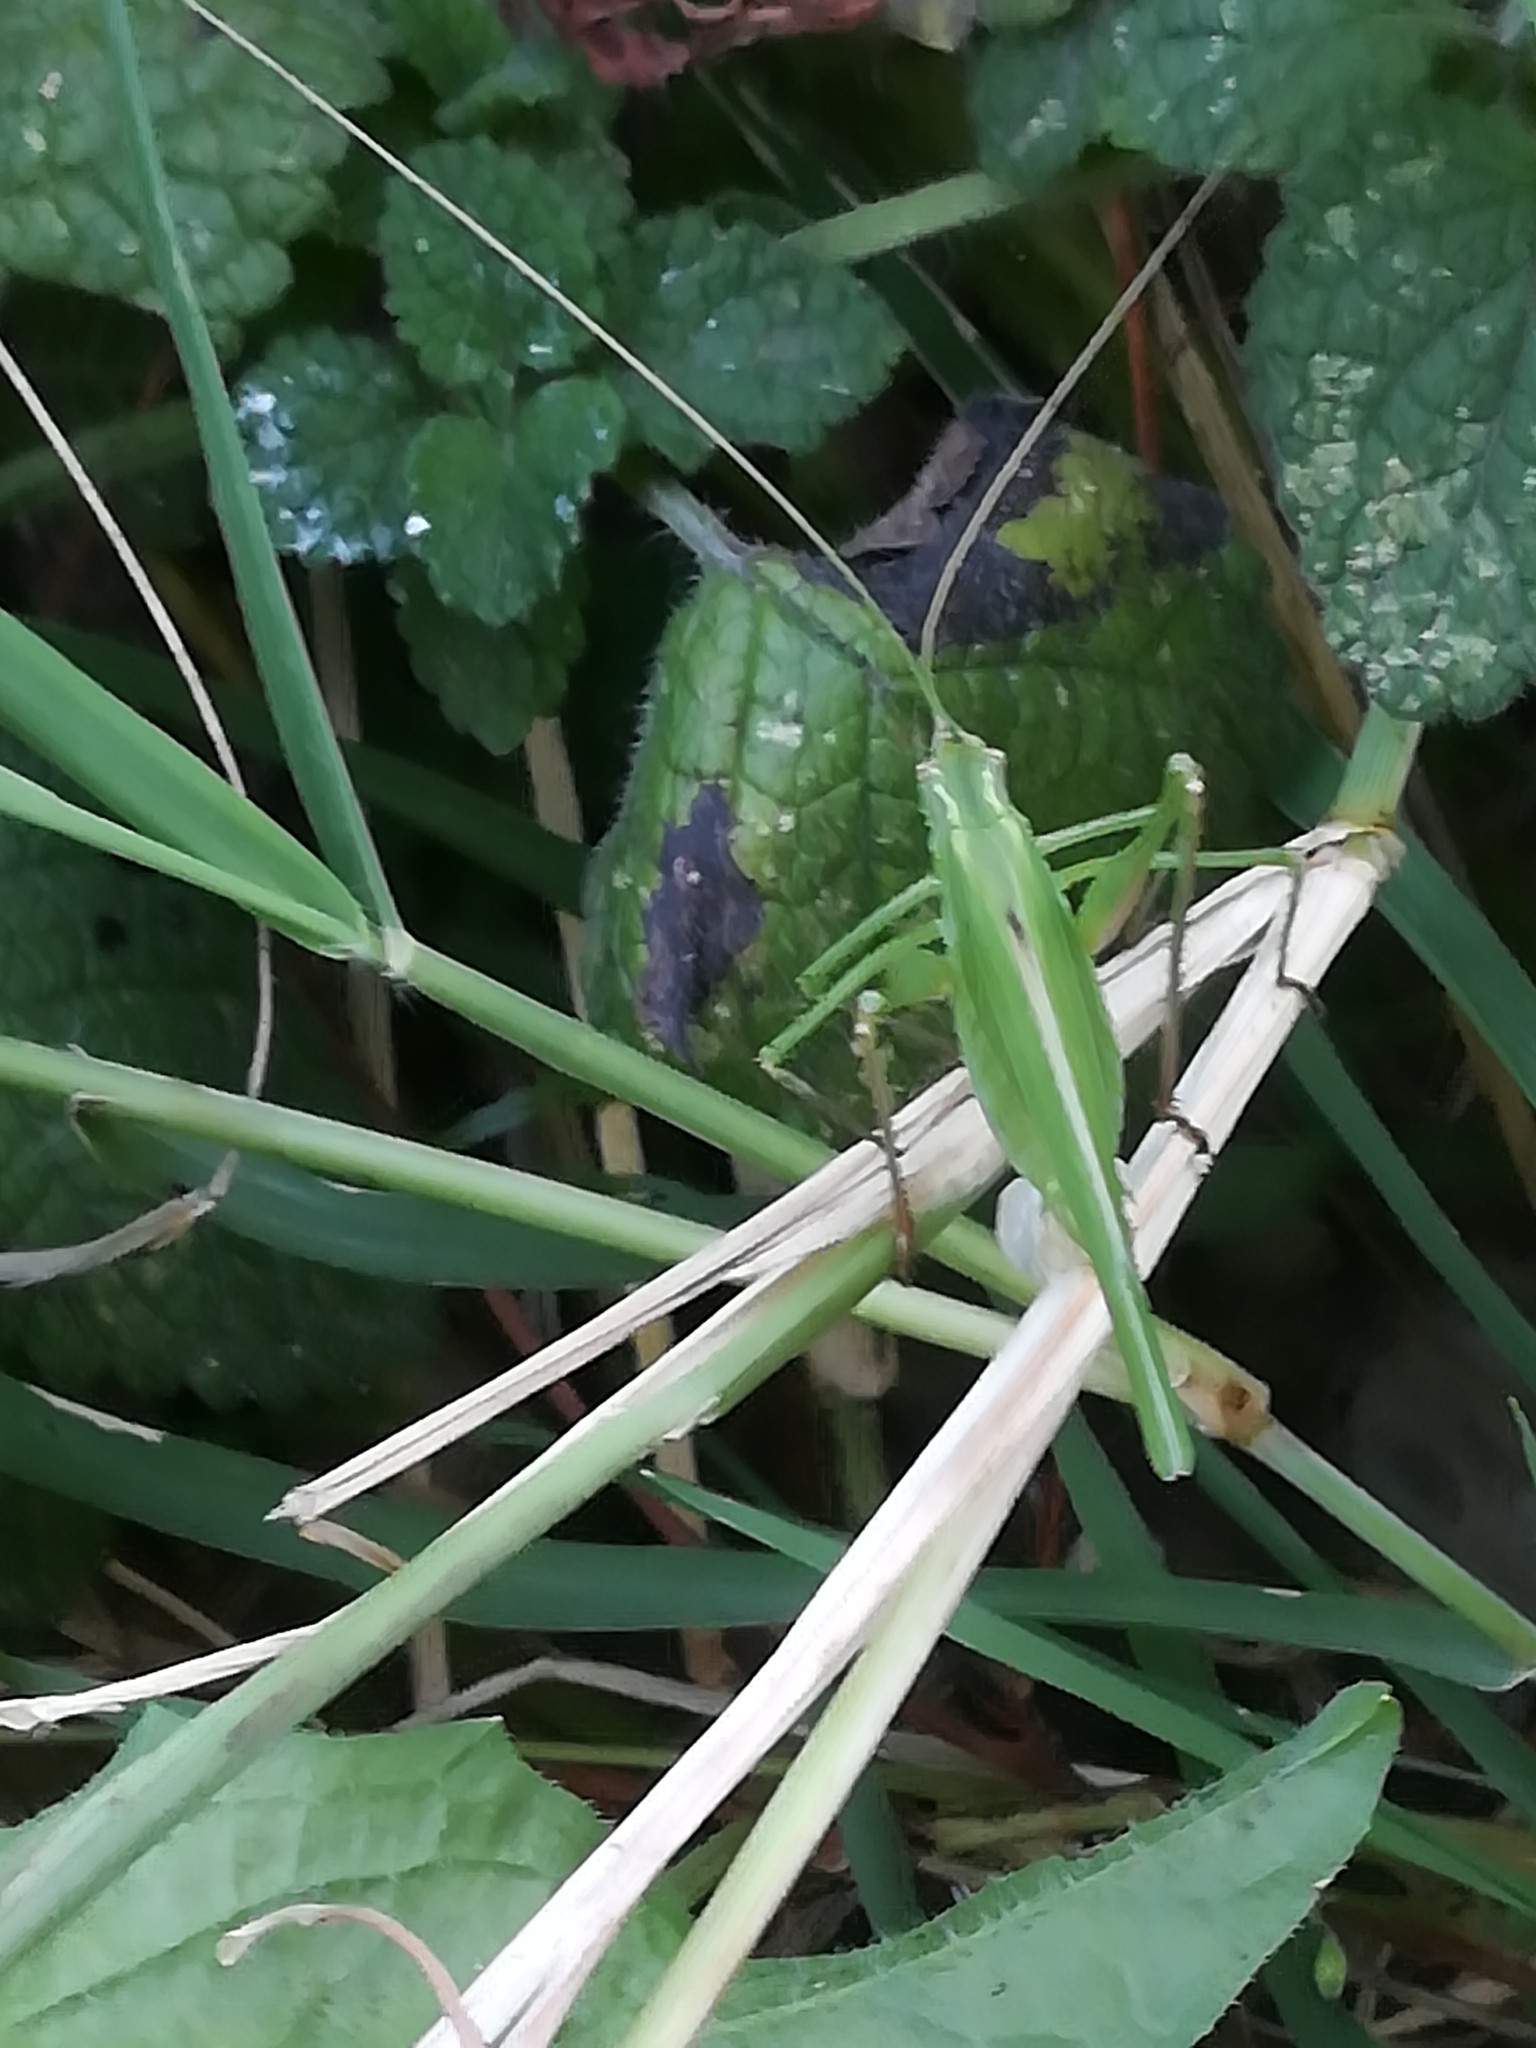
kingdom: Animalia
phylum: Arthropoda
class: Insecta
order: Orthoptera
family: Tettigoniidae
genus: Tylopsis
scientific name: Tylopsis lilifolia
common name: Lily bush-cricket
